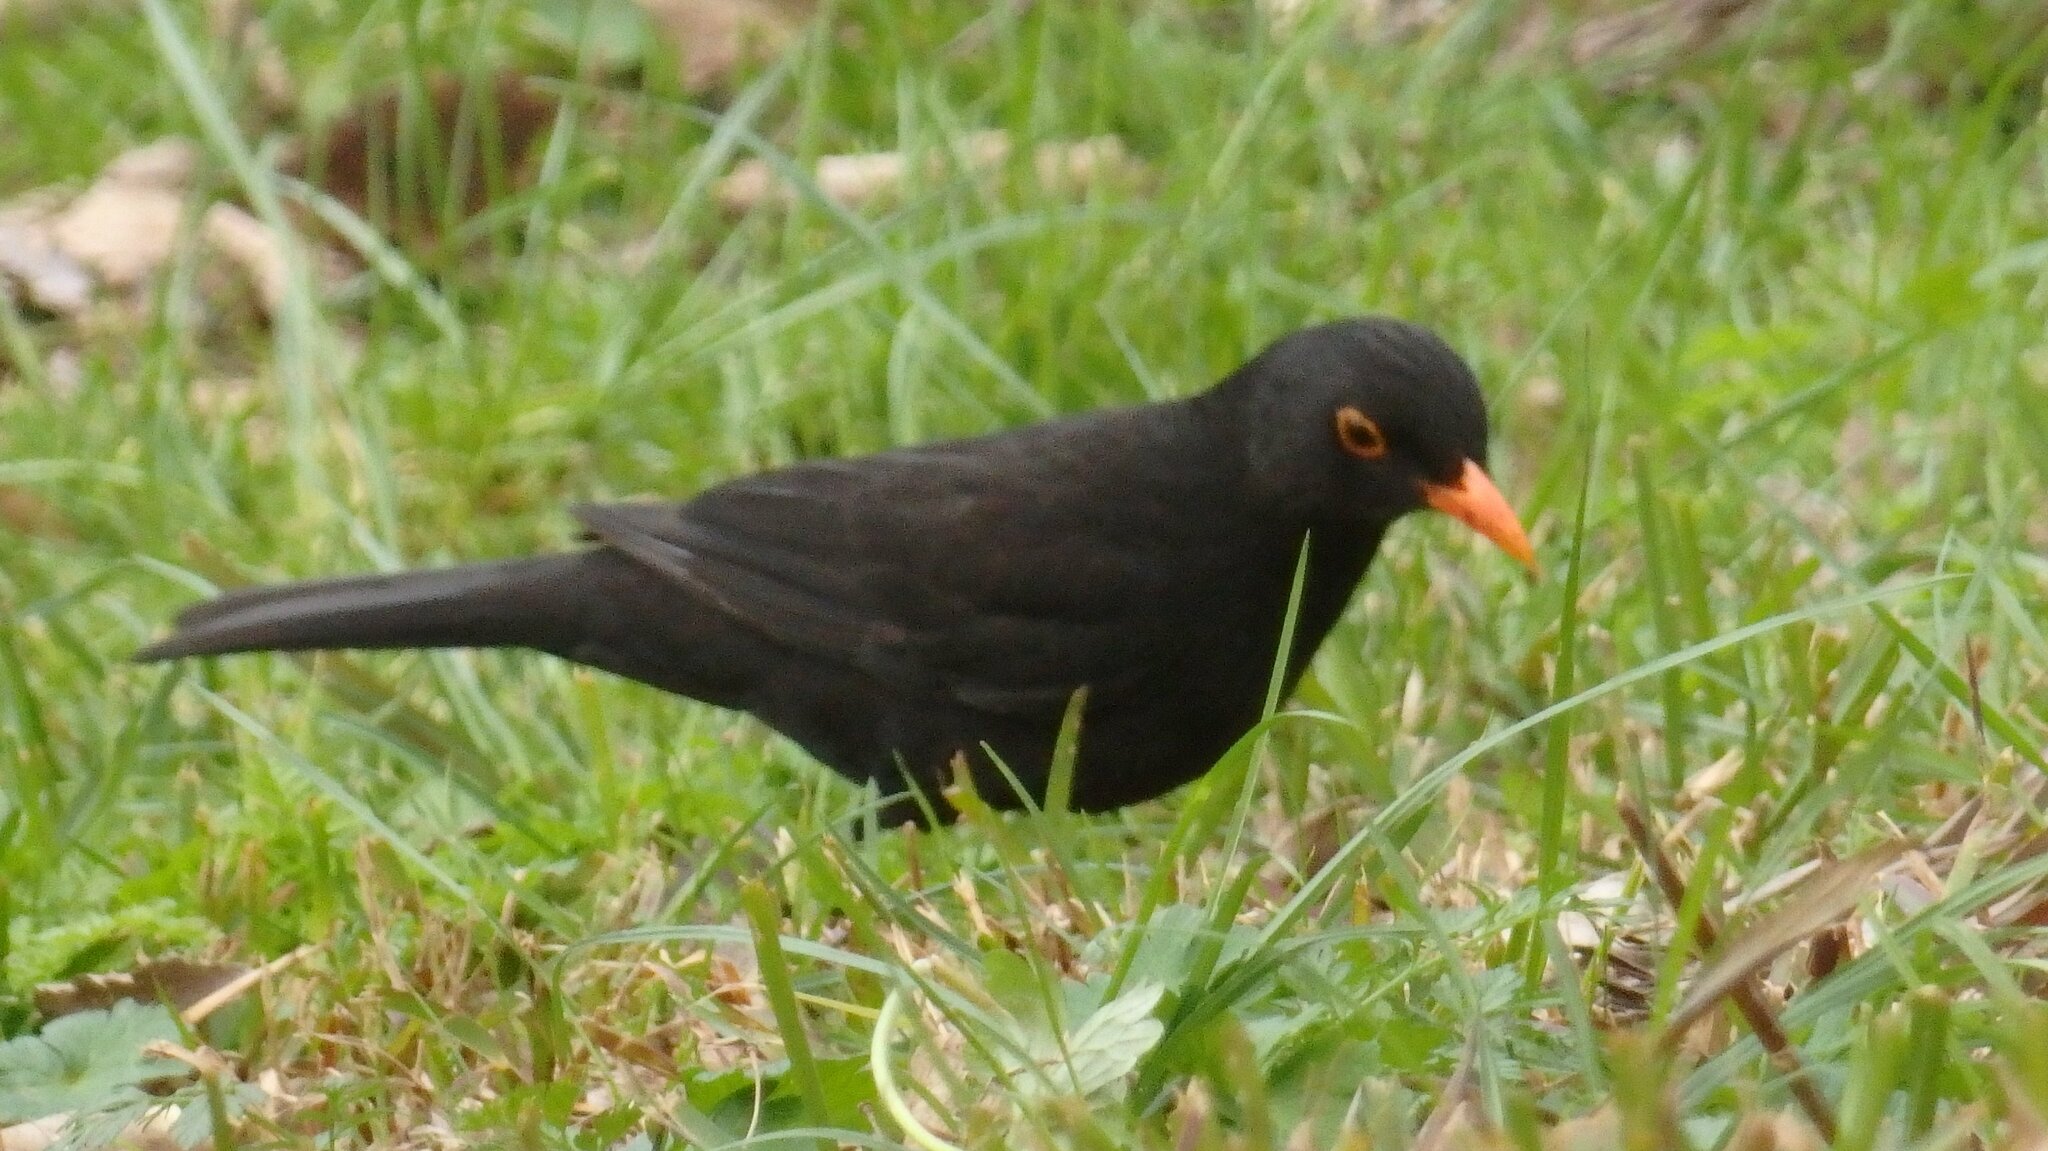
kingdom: Animalia
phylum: Chordata
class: Aves
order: Passeriformes
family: Turdidae
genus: Turdus
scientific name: Turdus merula
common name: Common blackbird
